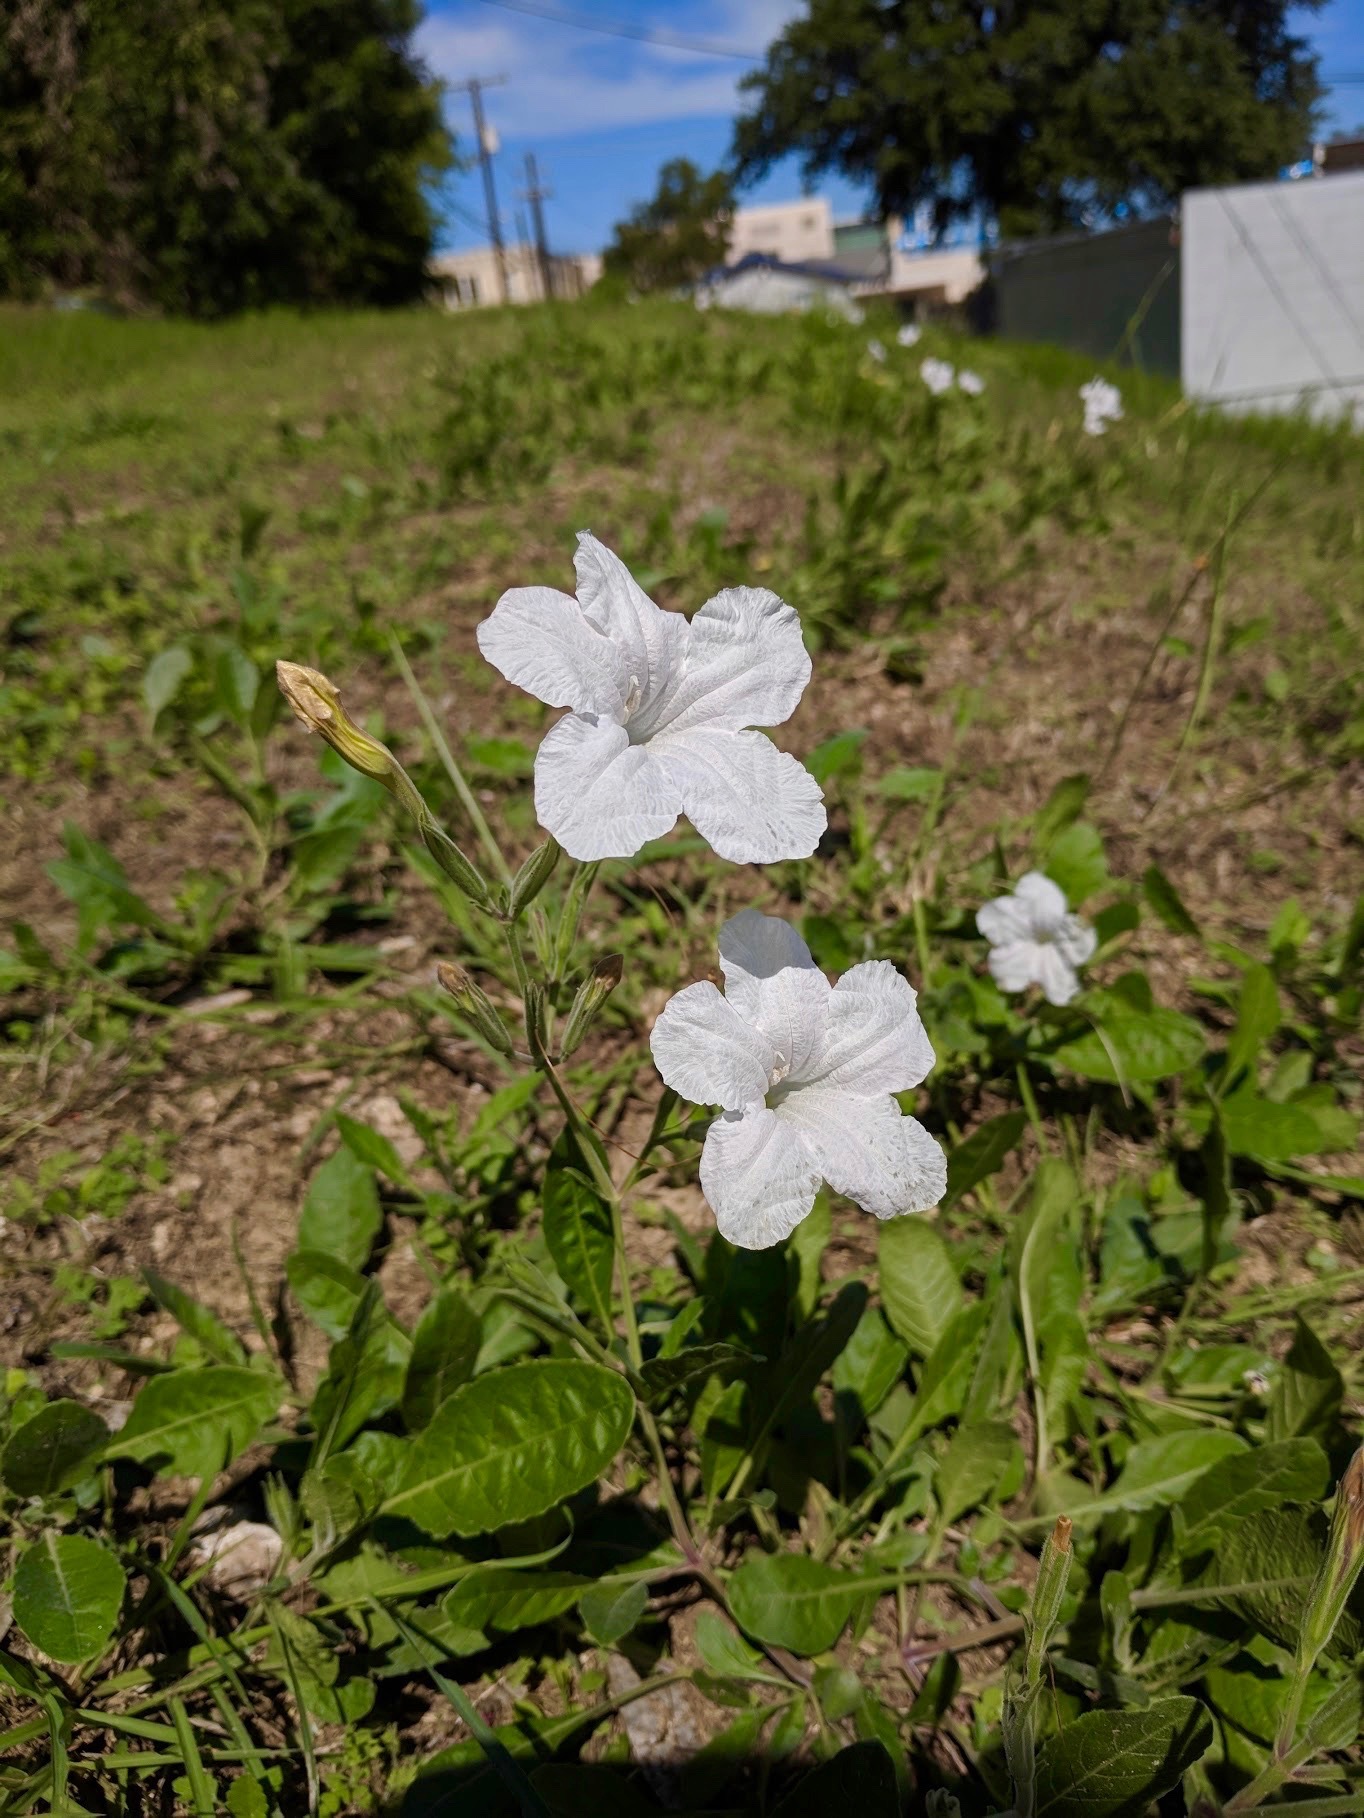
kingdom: Plantae
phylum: Tracheophyta
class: Magnoliopsida
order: Lamiales
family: Acanthaceae
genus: Ruellia
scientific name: Ruellia metziae
